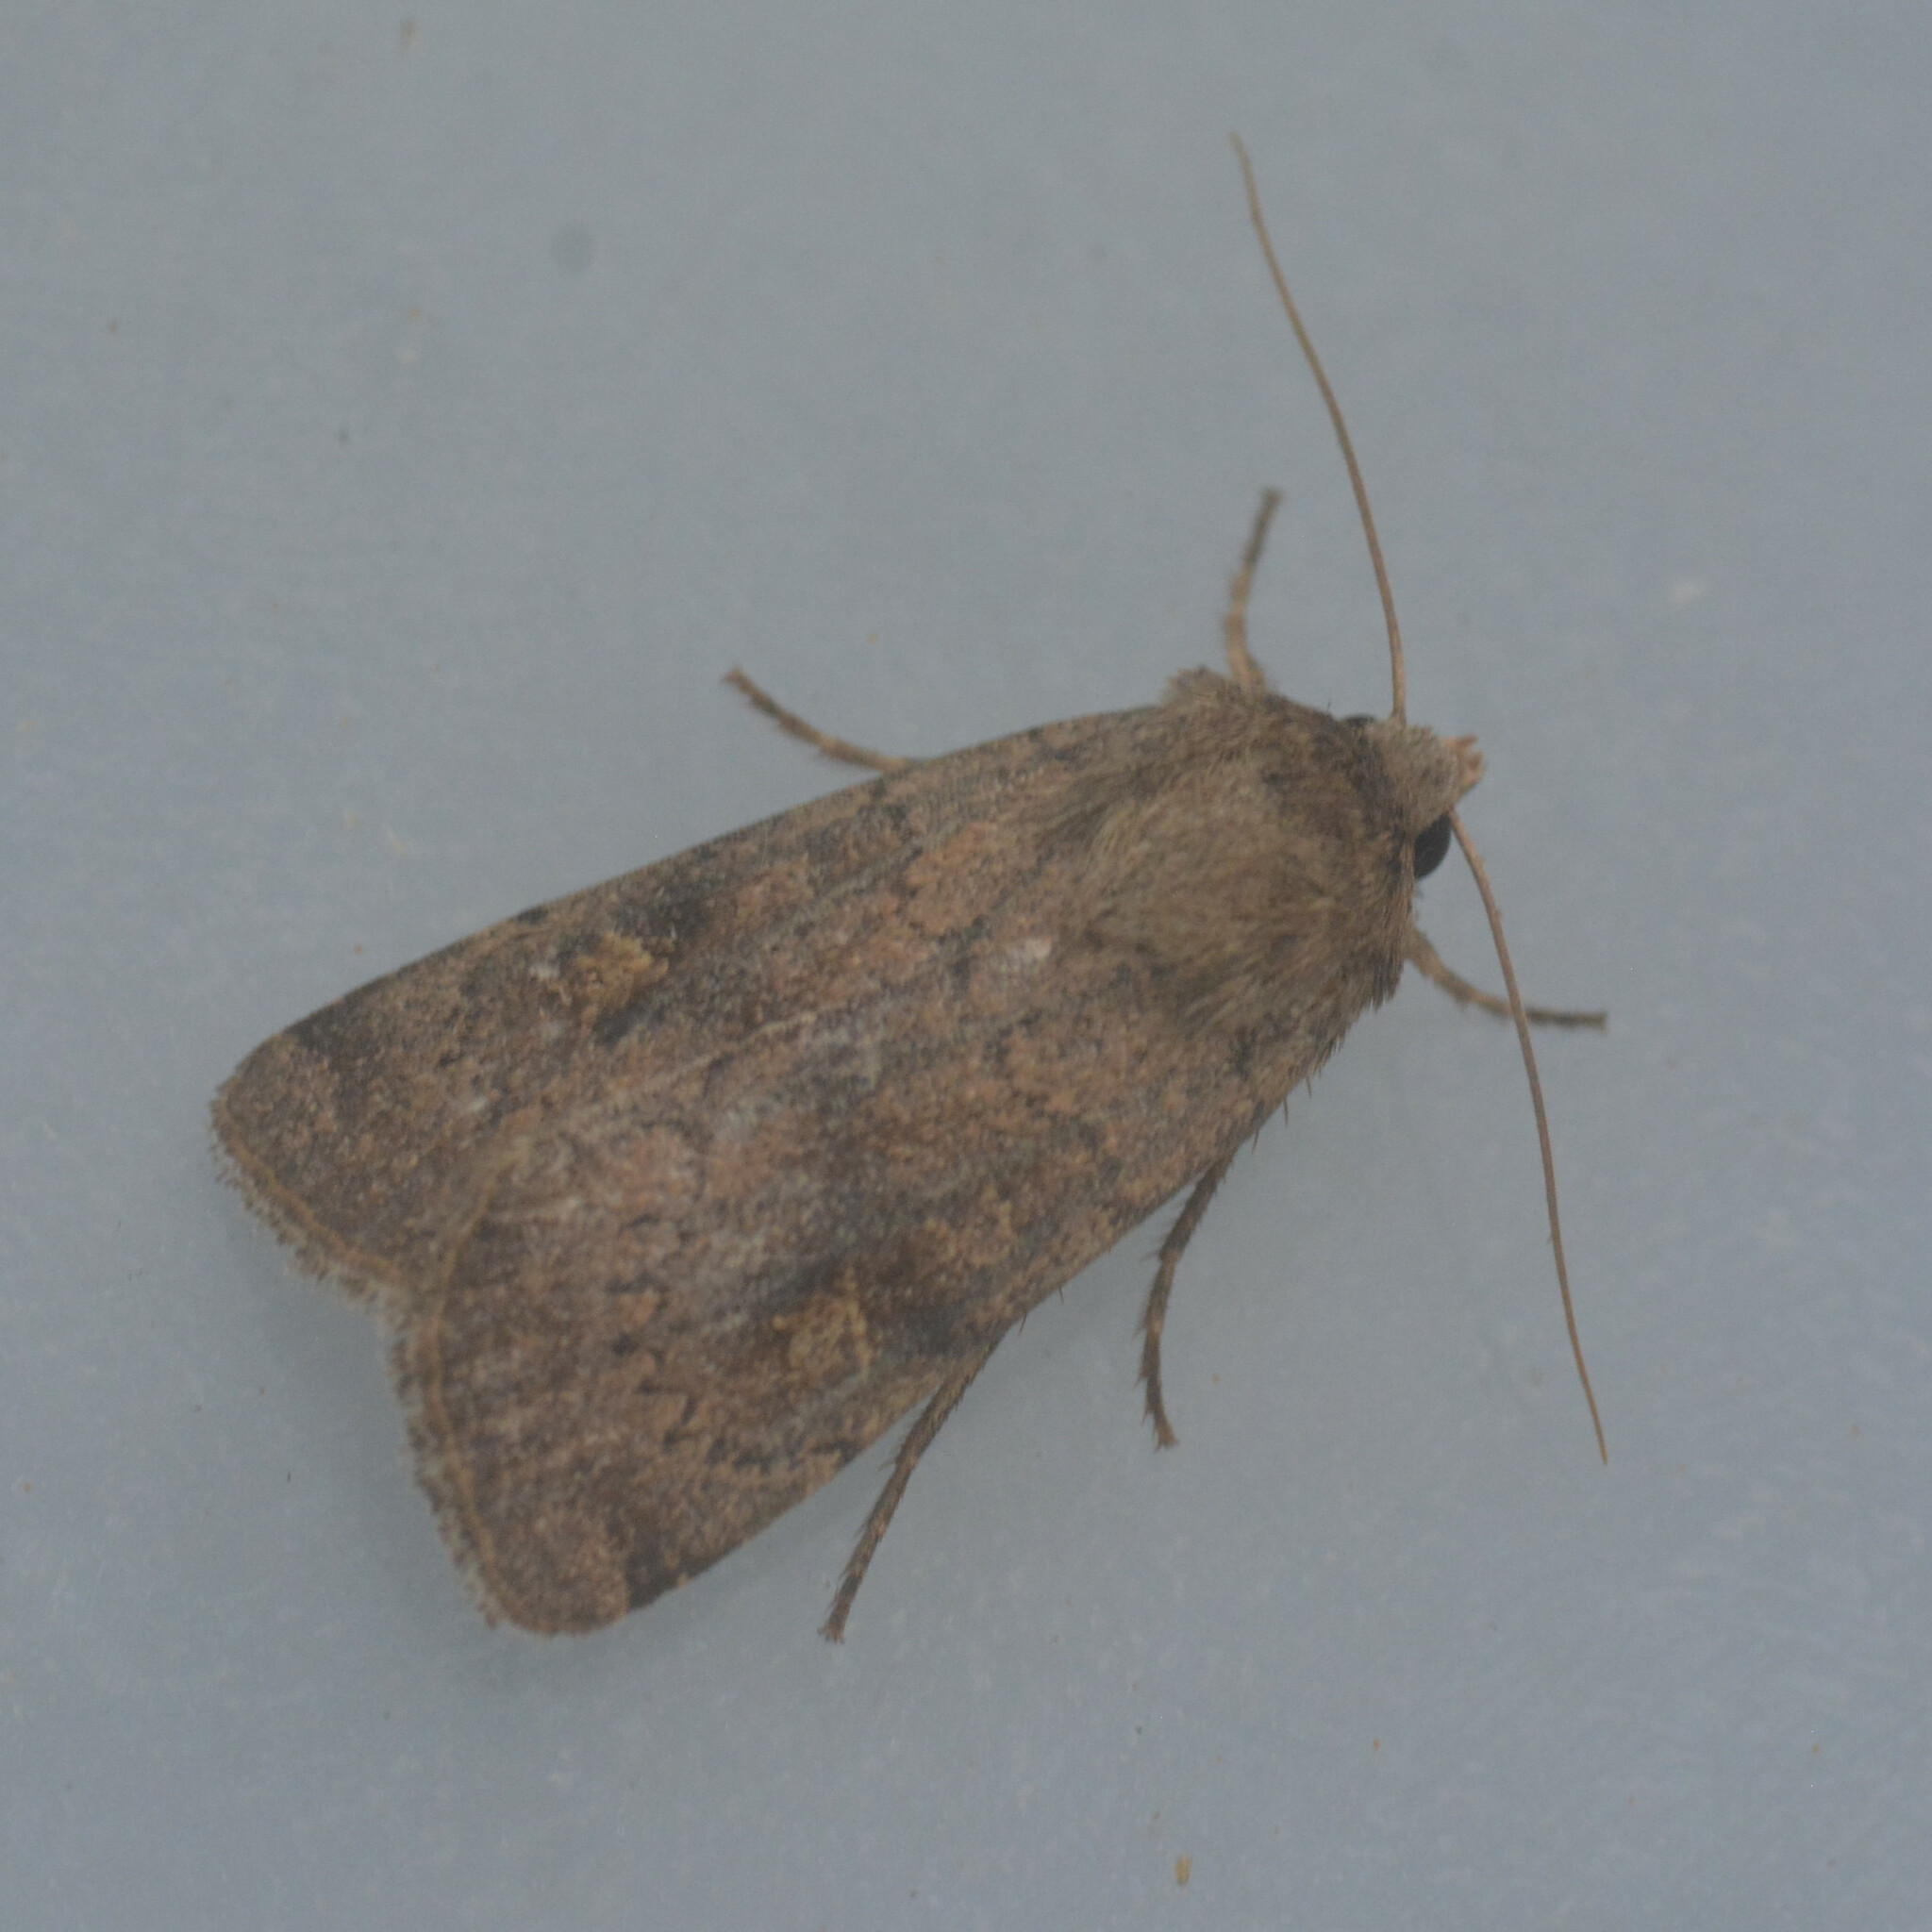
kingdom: Animalia
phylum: Arthropoda
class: Insecta
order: Lepidoptera
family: Noctuidae
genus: Xestia
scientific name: Xestia xanthographa
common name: Square-spot rustic
